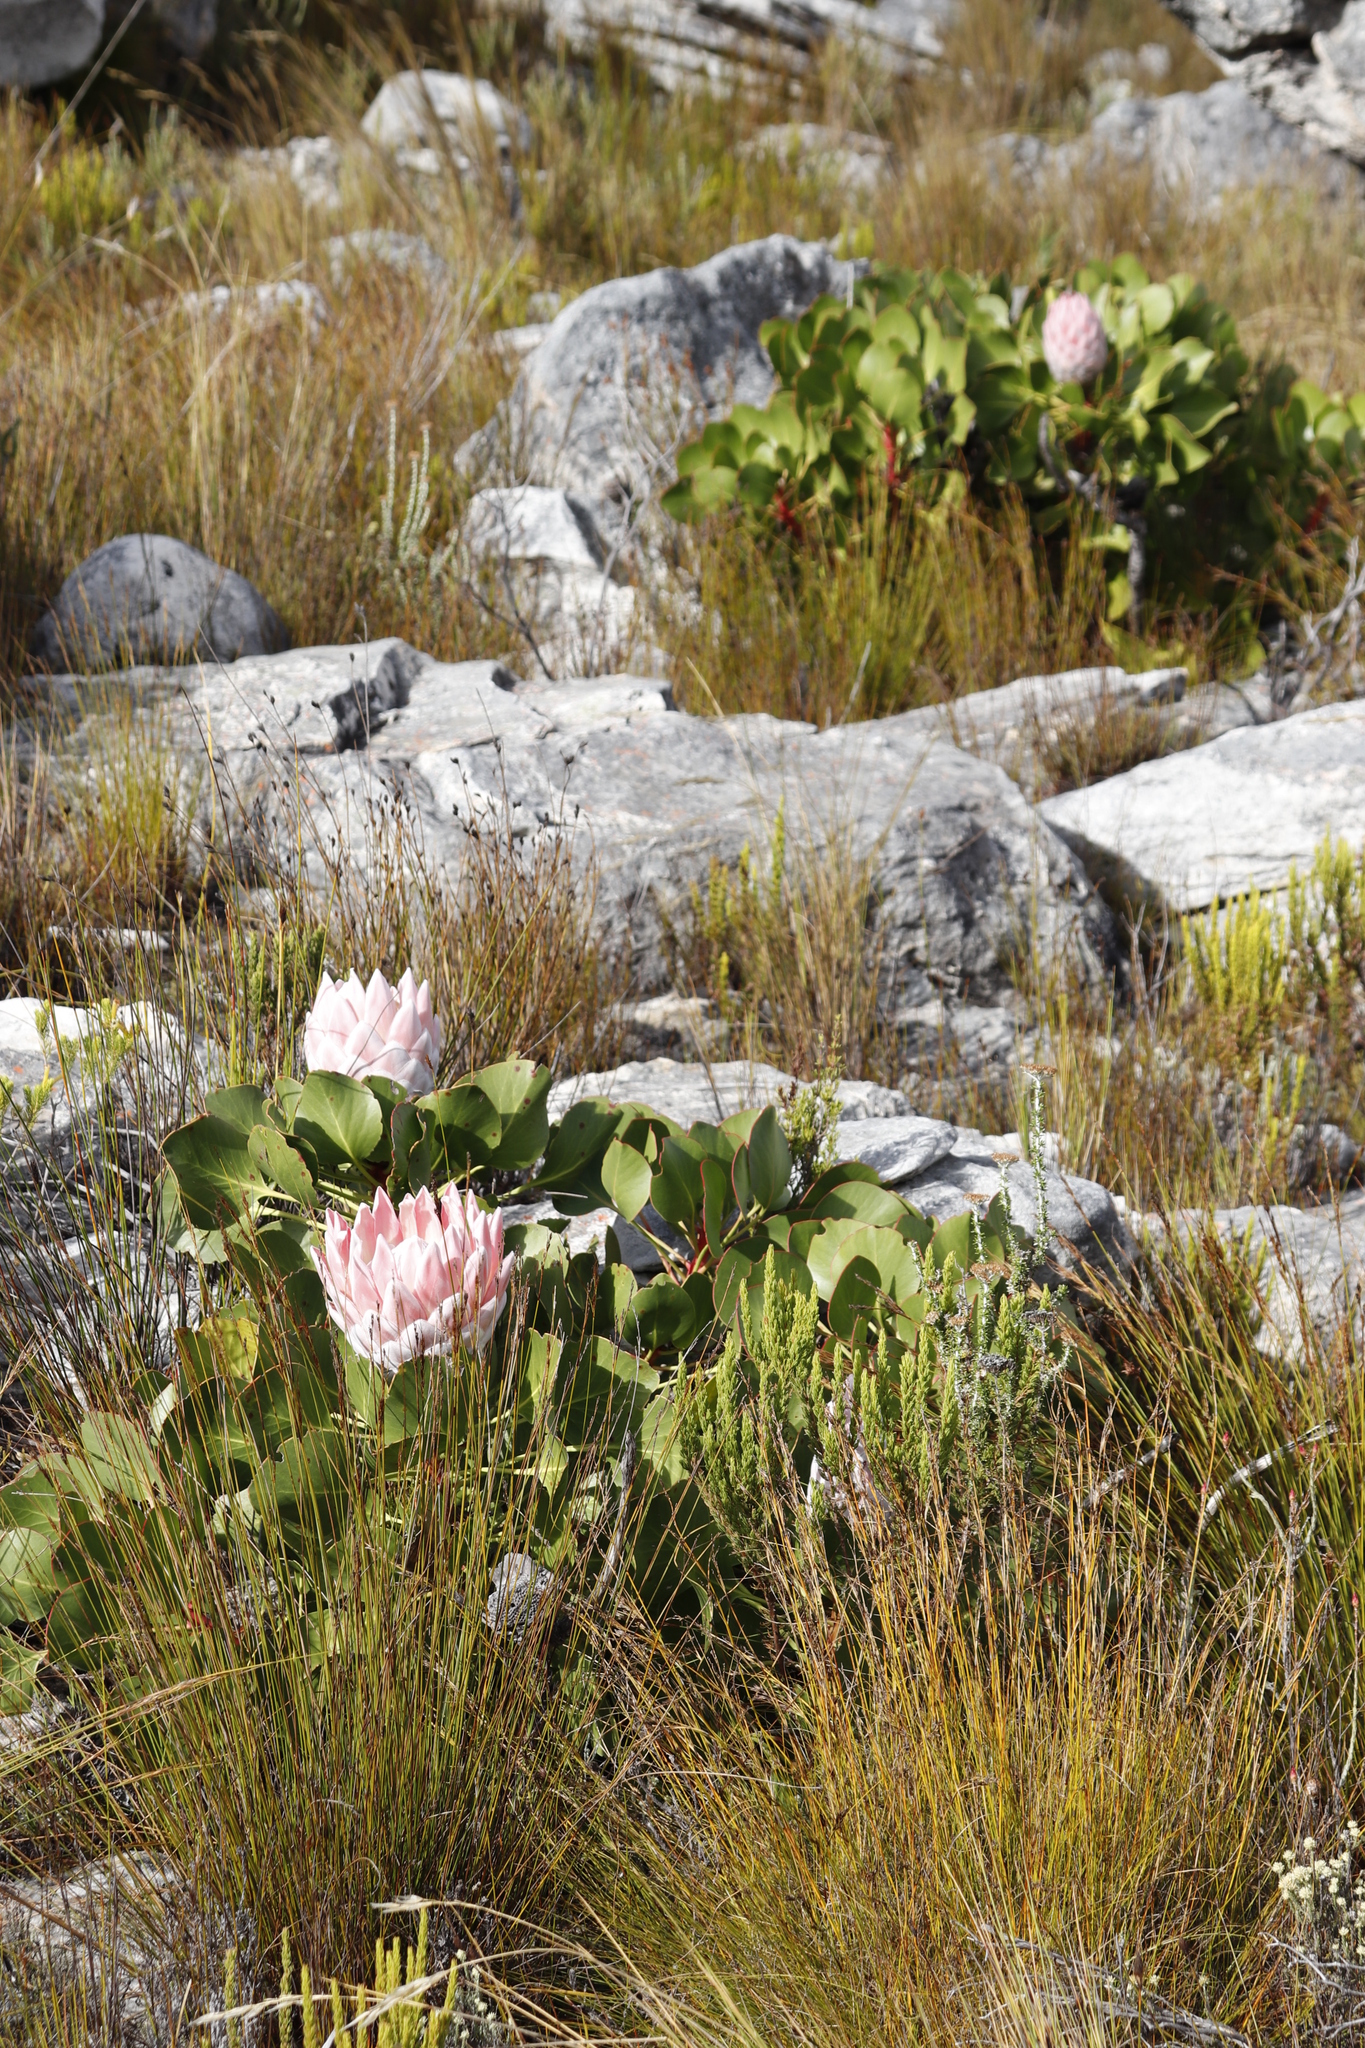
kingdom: Plantae
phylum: Tracheophyta
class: Magnoliopsida
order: Proteales
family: Proteaceae
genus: Protea
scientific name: Protea cynaroides
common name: King protea
